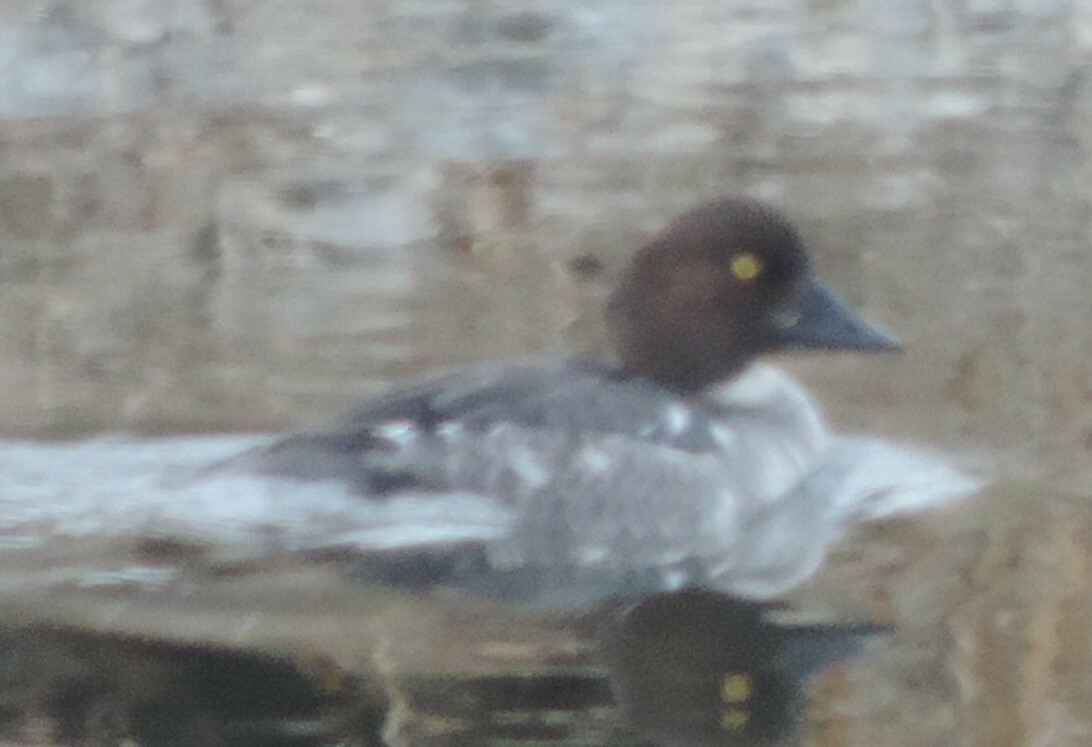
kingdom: Animalia
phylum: Chordata
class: Aves
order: Anseriformes
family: Anatidae
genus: Bucephala
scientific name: Bucephala clangula
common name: Common goldeneye
